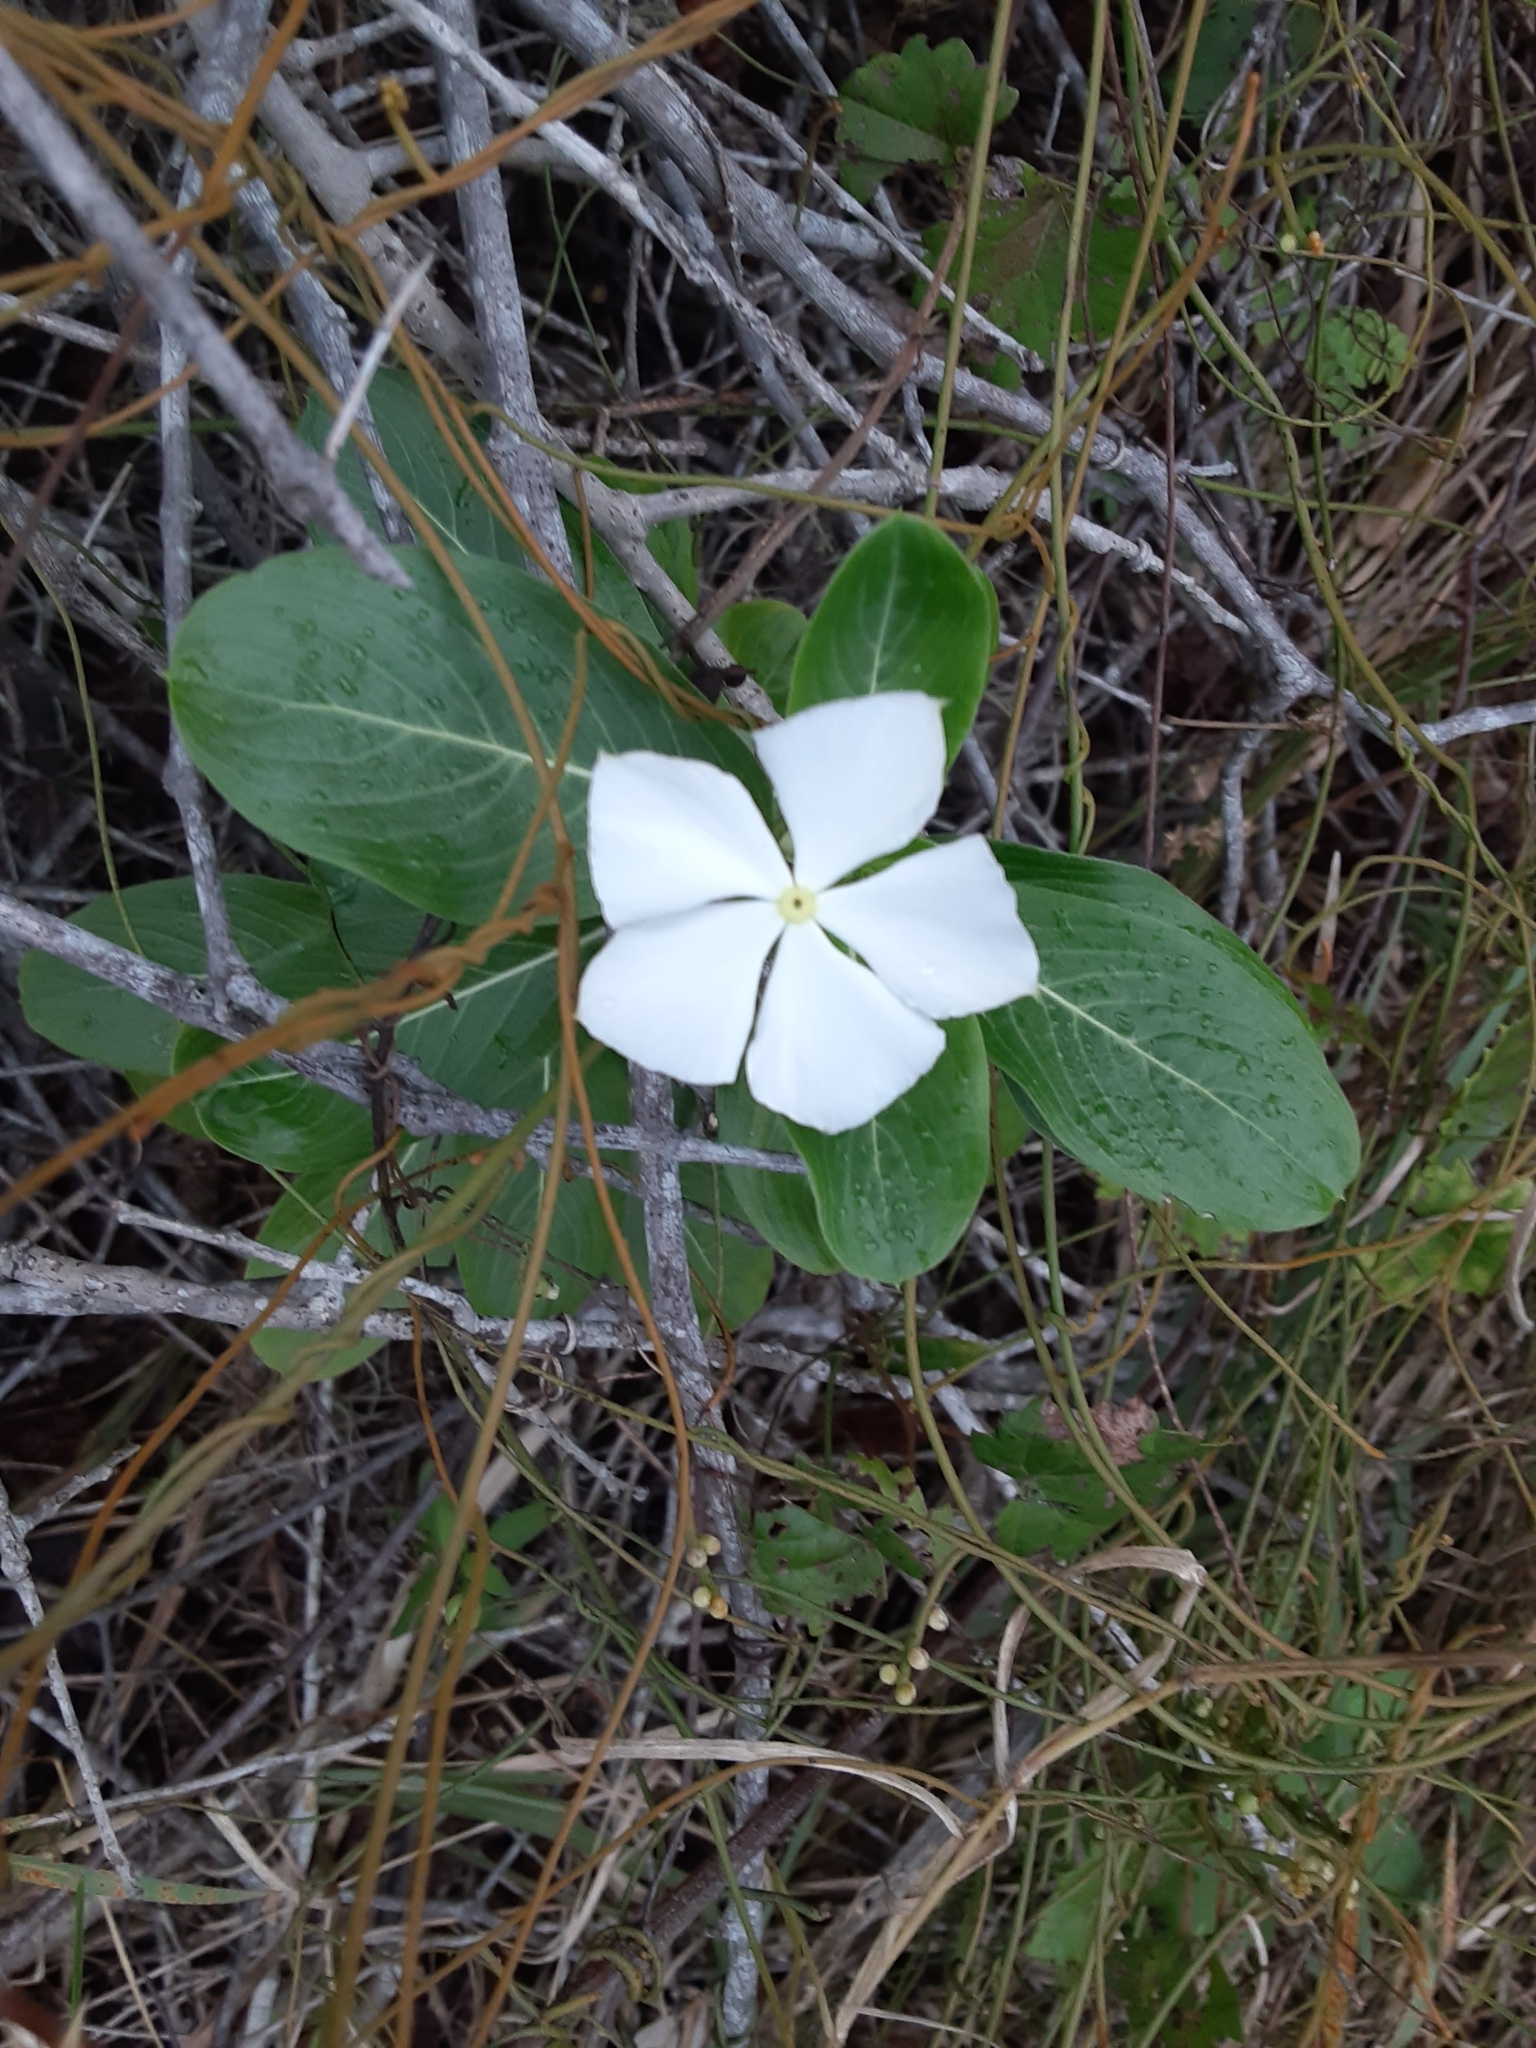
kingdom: Plantae
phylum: Tracheophyta
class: Magnoliopsida
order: Gentianales
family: Apocynaceae
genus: Catharanthus
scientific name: Catharanthus roseus
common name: Madagascar periwinkle
